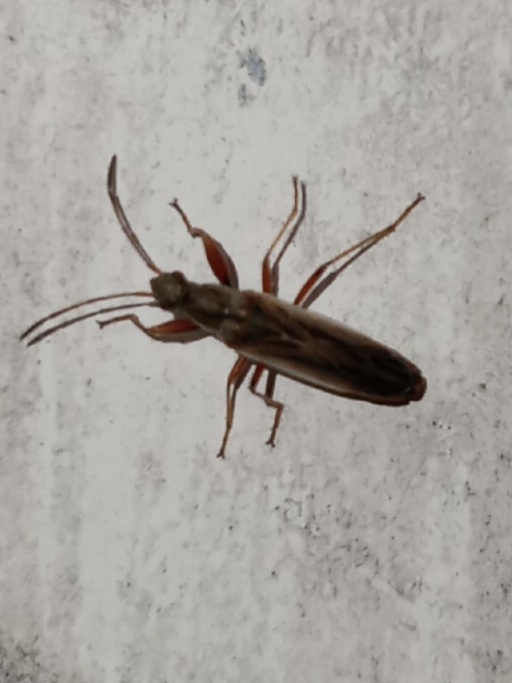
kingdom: Animalia
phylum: Arthropoda
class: Insecta
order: Hemiptera
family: Rhyparochromidae
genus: Paromius
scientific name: Paromius longulus
